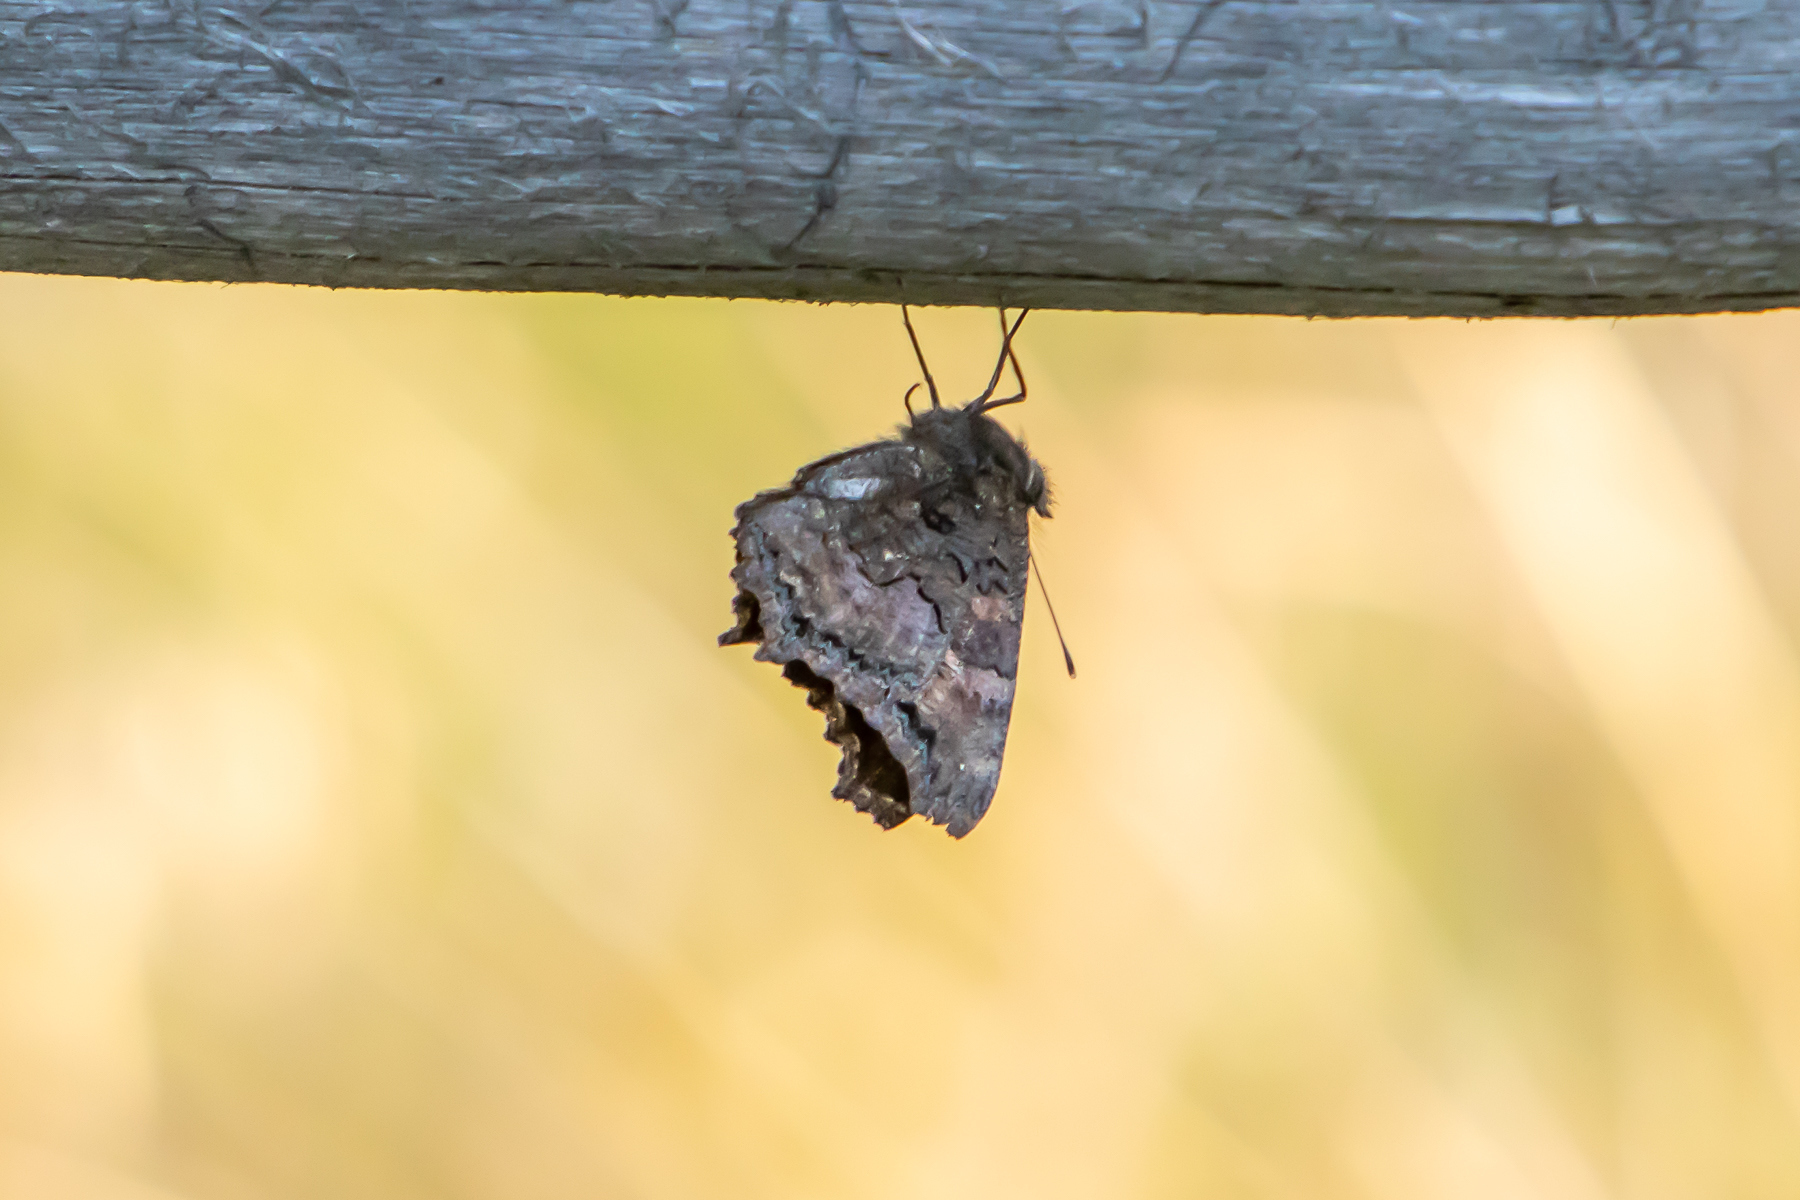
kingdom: Animalia
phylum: Arthropoda
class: Insecta
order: Lepidoptera
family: Nymphalidae
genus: Nymphalis
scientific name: Nymphalis californica
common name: California tortoiseshell
